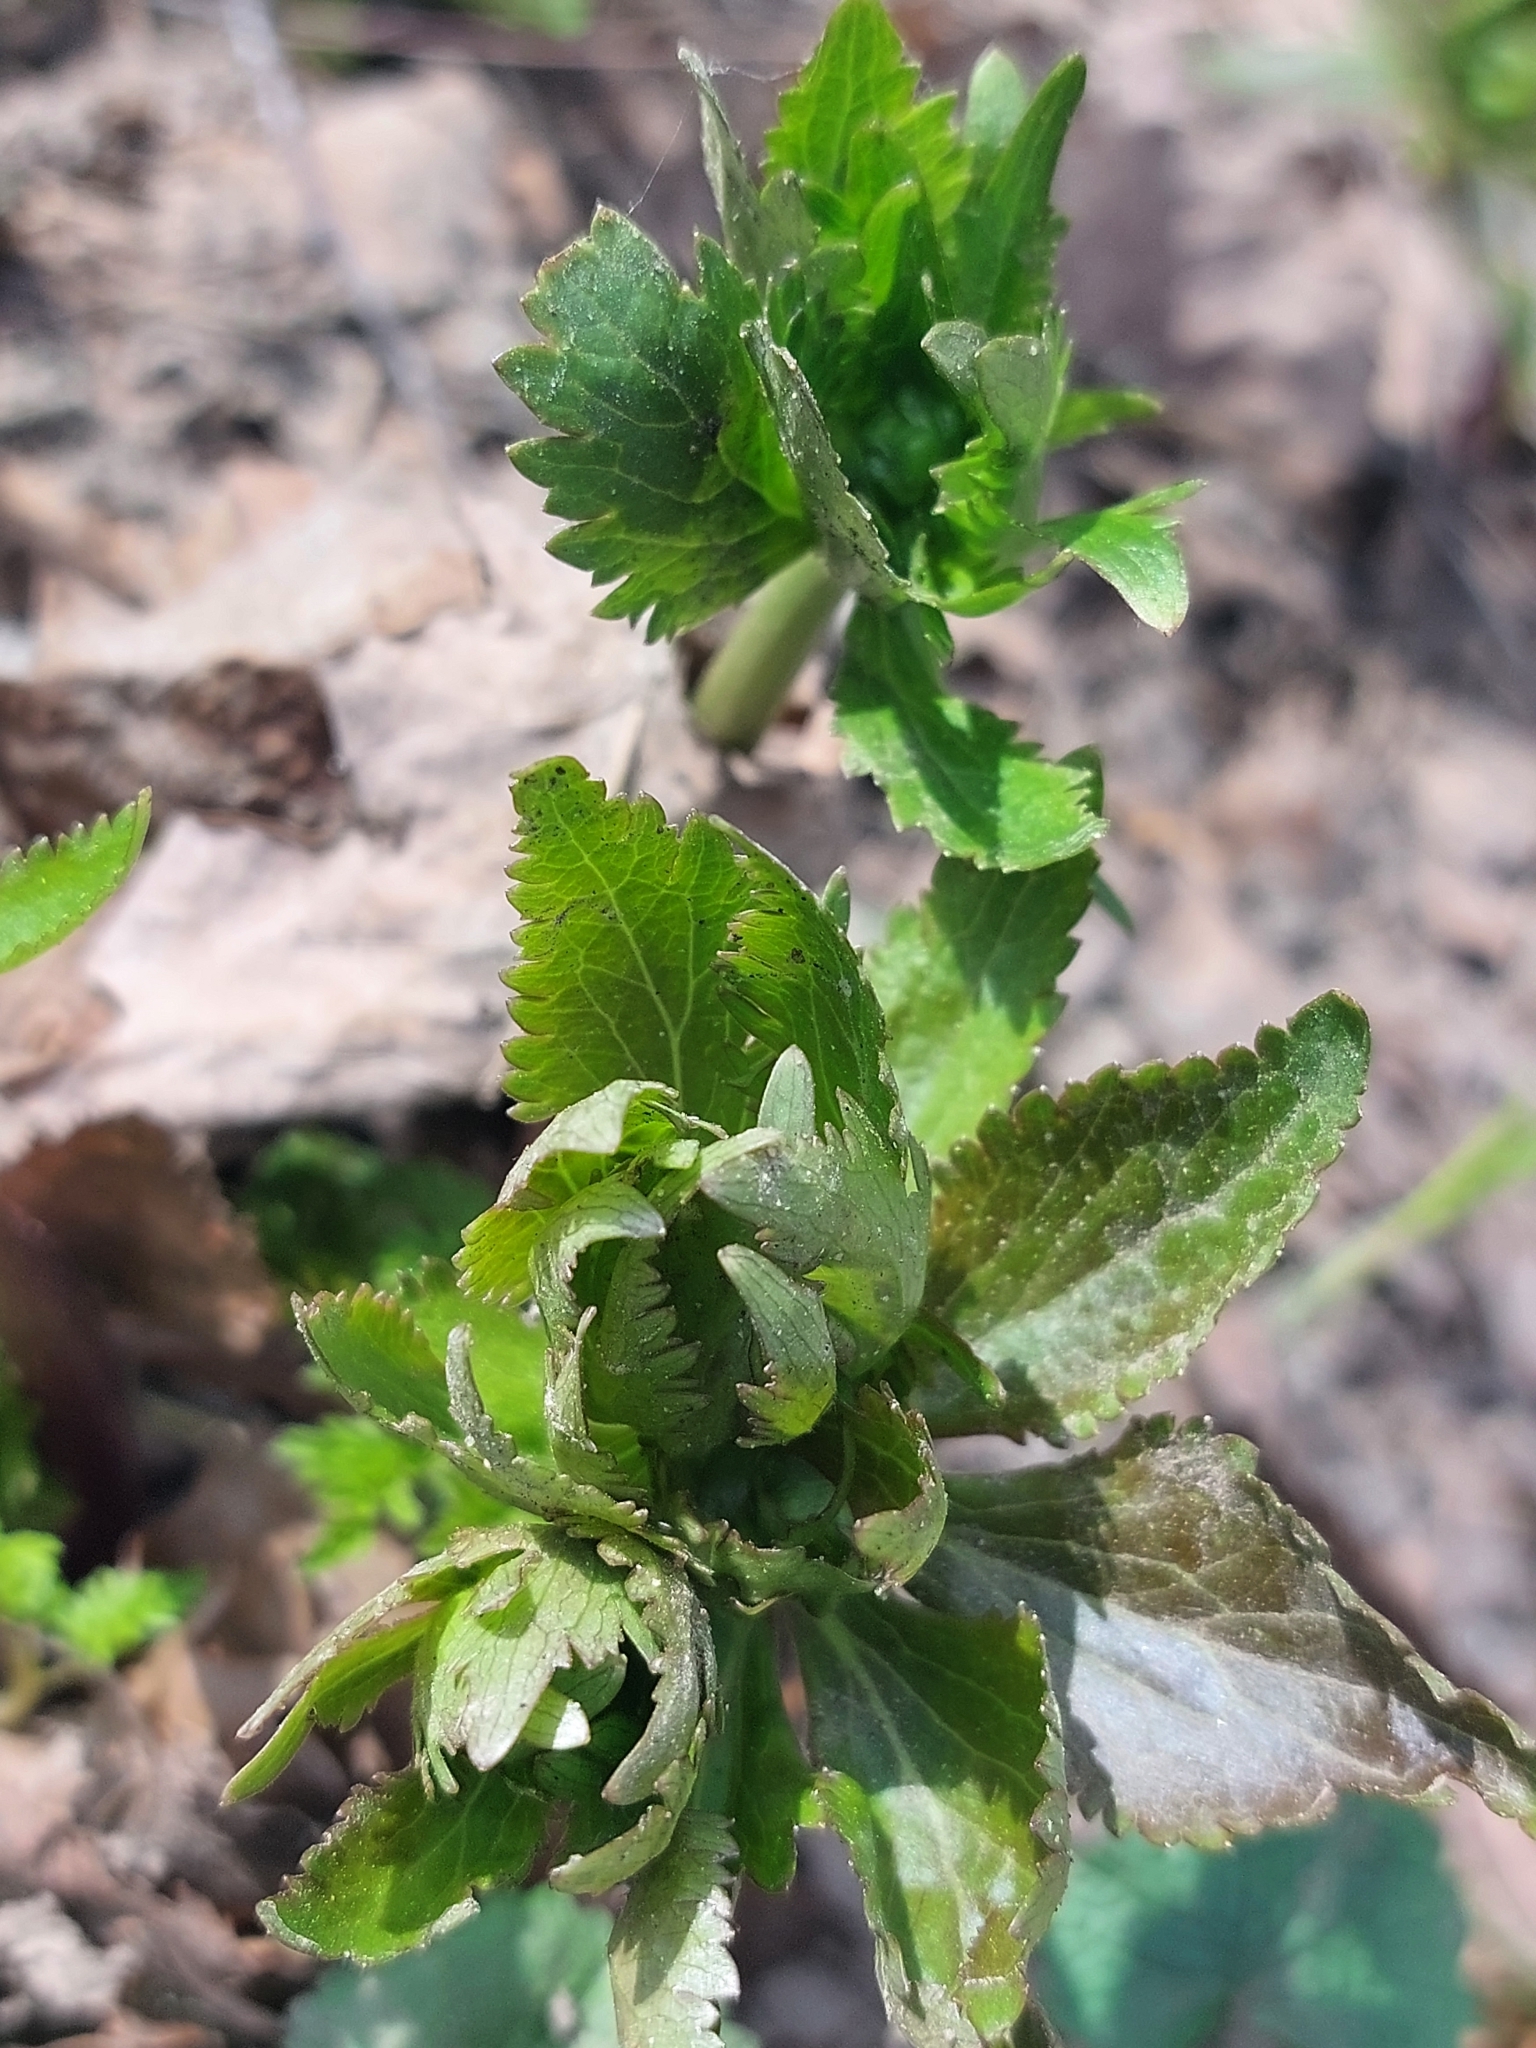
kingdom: Plantae
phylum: Tracheophyta
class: Magnoliopsida
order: Ranunculales
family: Ranunculaceae
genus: Ranunculus
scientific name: Ranunculus cassubicus
